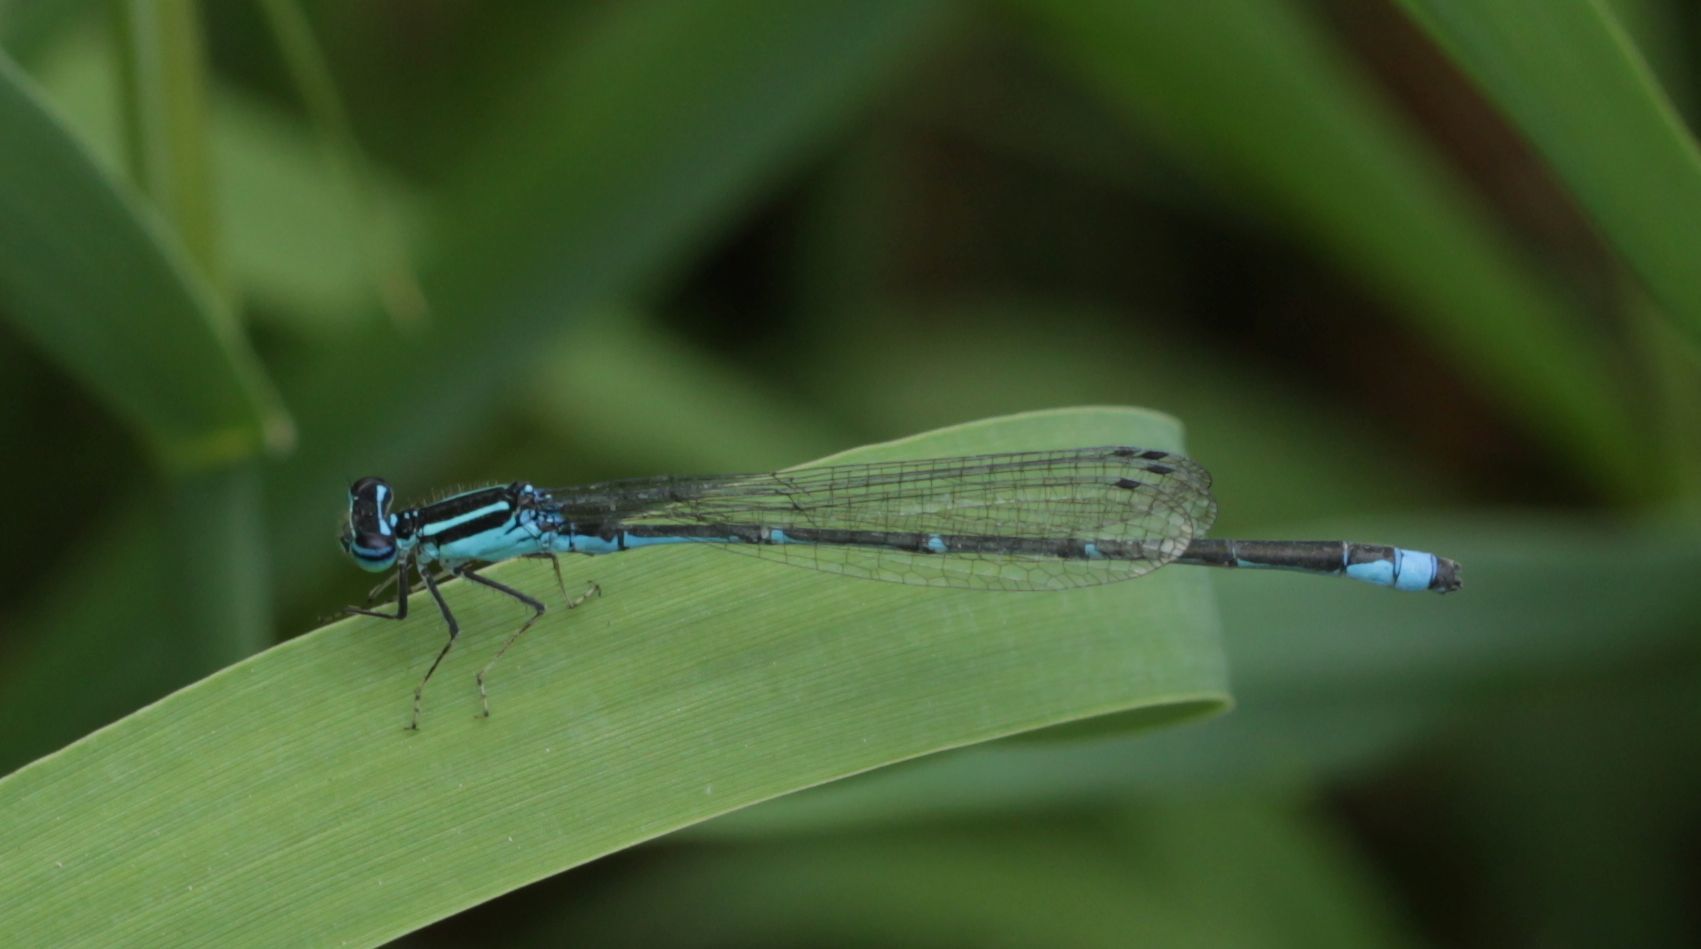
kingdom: Animalia
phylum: Arthropoda
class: Insecta
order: Odonata
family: Coenagrionidae
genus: Enallagma
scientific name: Enallagma exsulans
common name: Stream bluet
